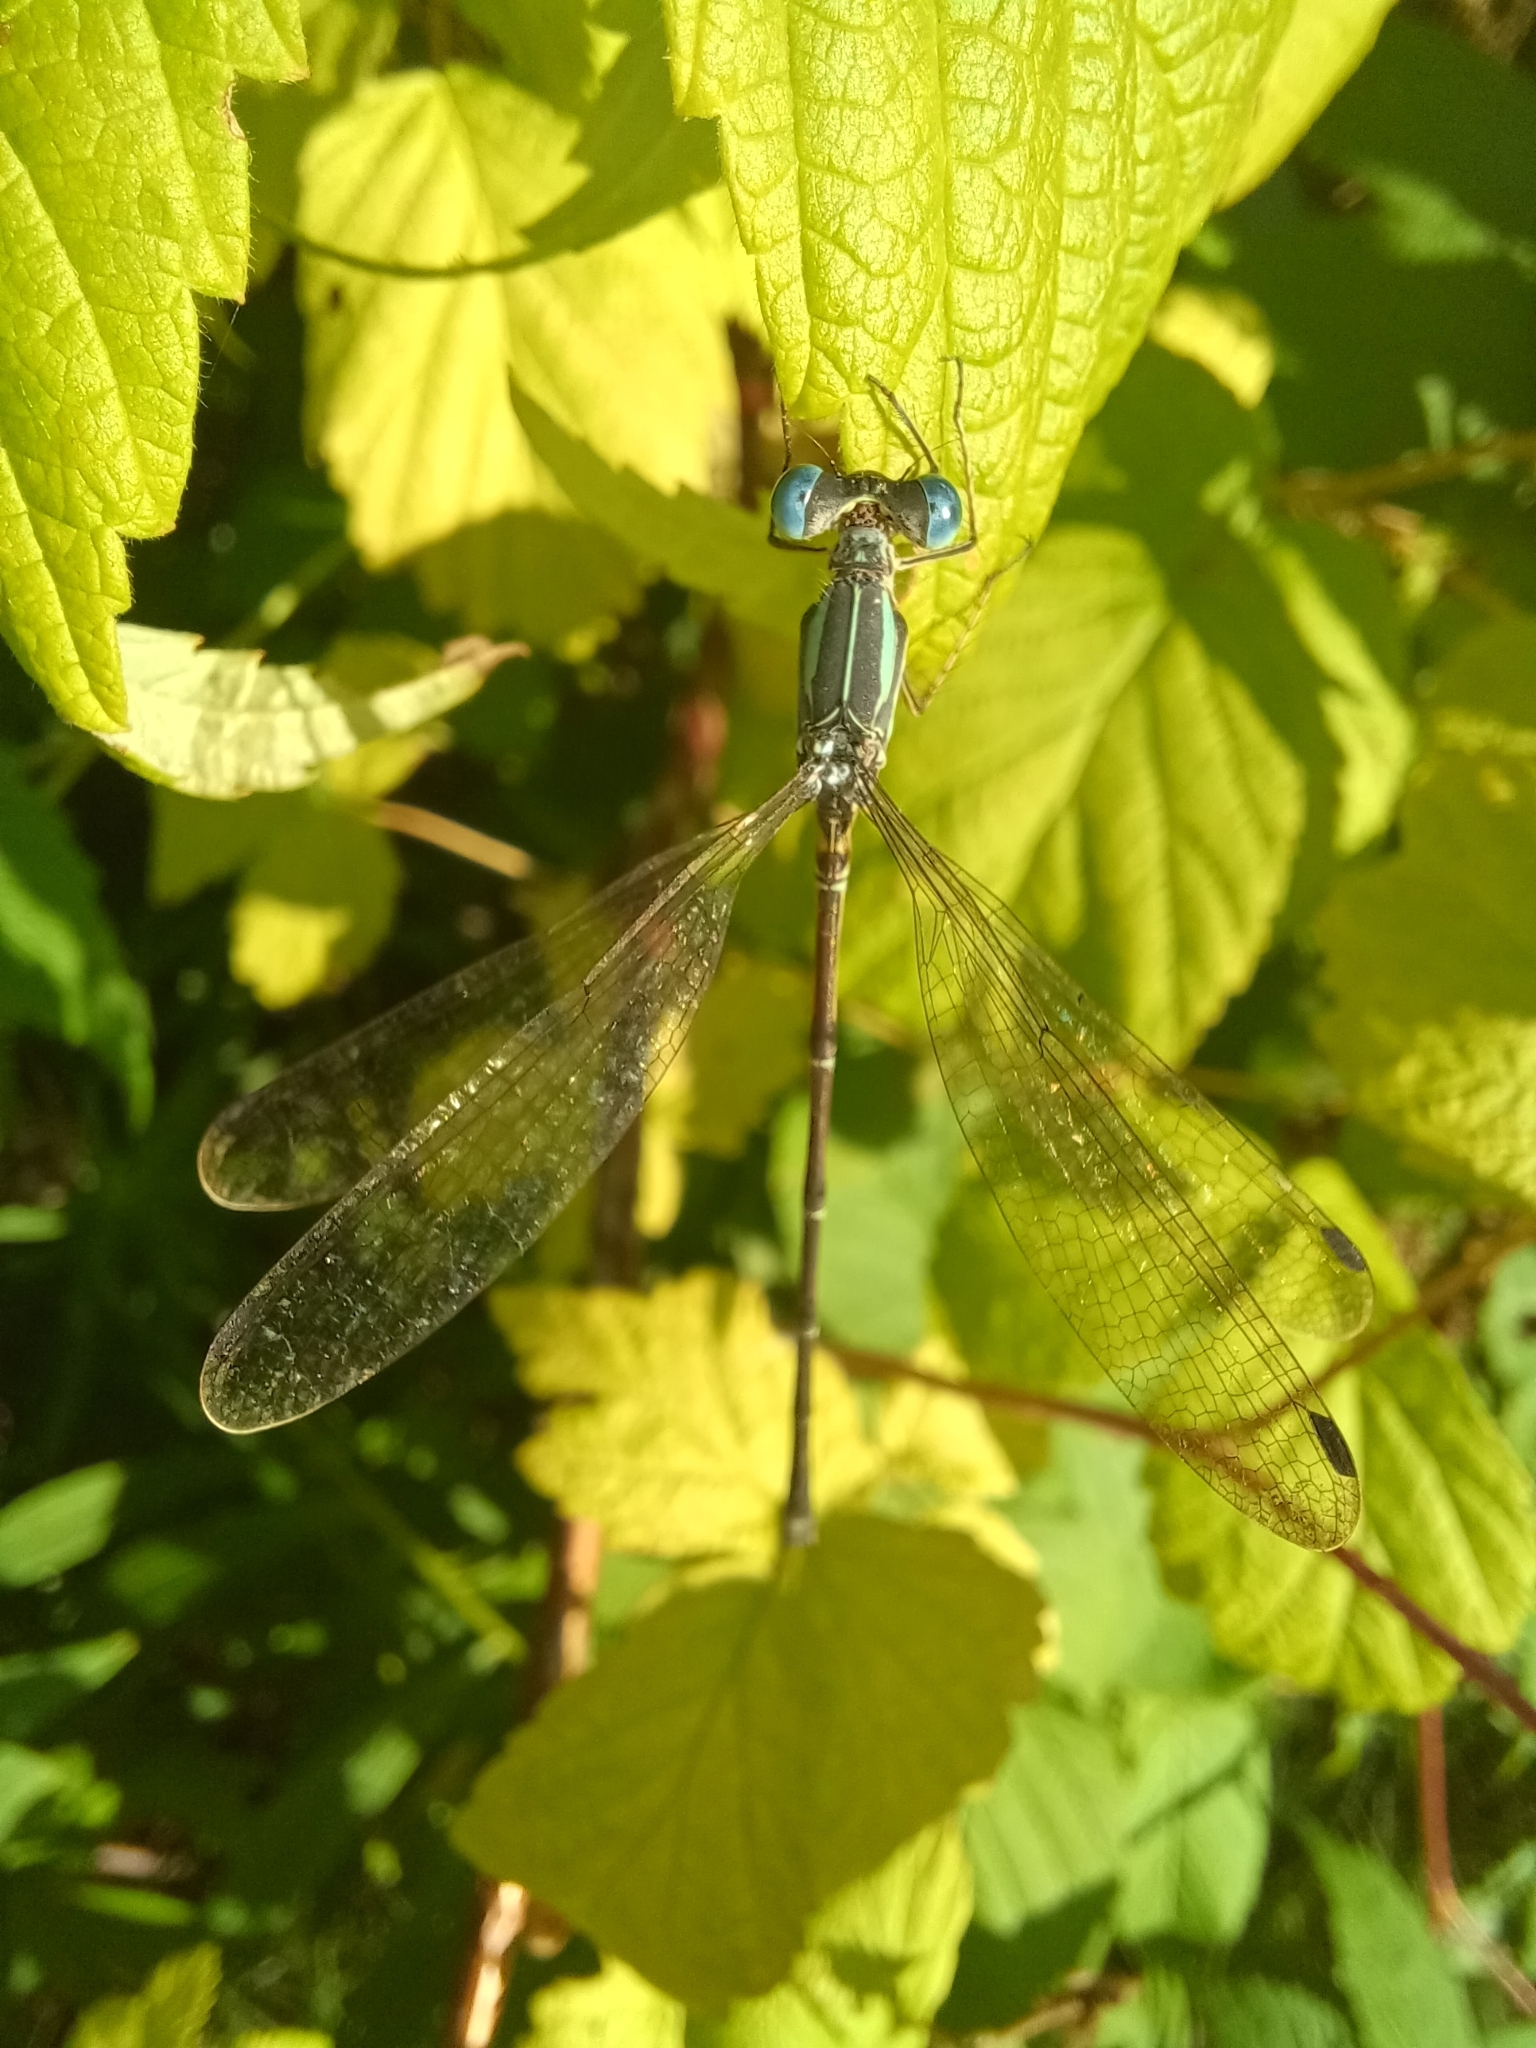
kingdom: Animalia
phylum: Arthropoda
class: Insecta
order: Odonata
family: Lestidae
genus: Lestes
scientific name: Lestes rectangularis
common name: Slender spreadwing
